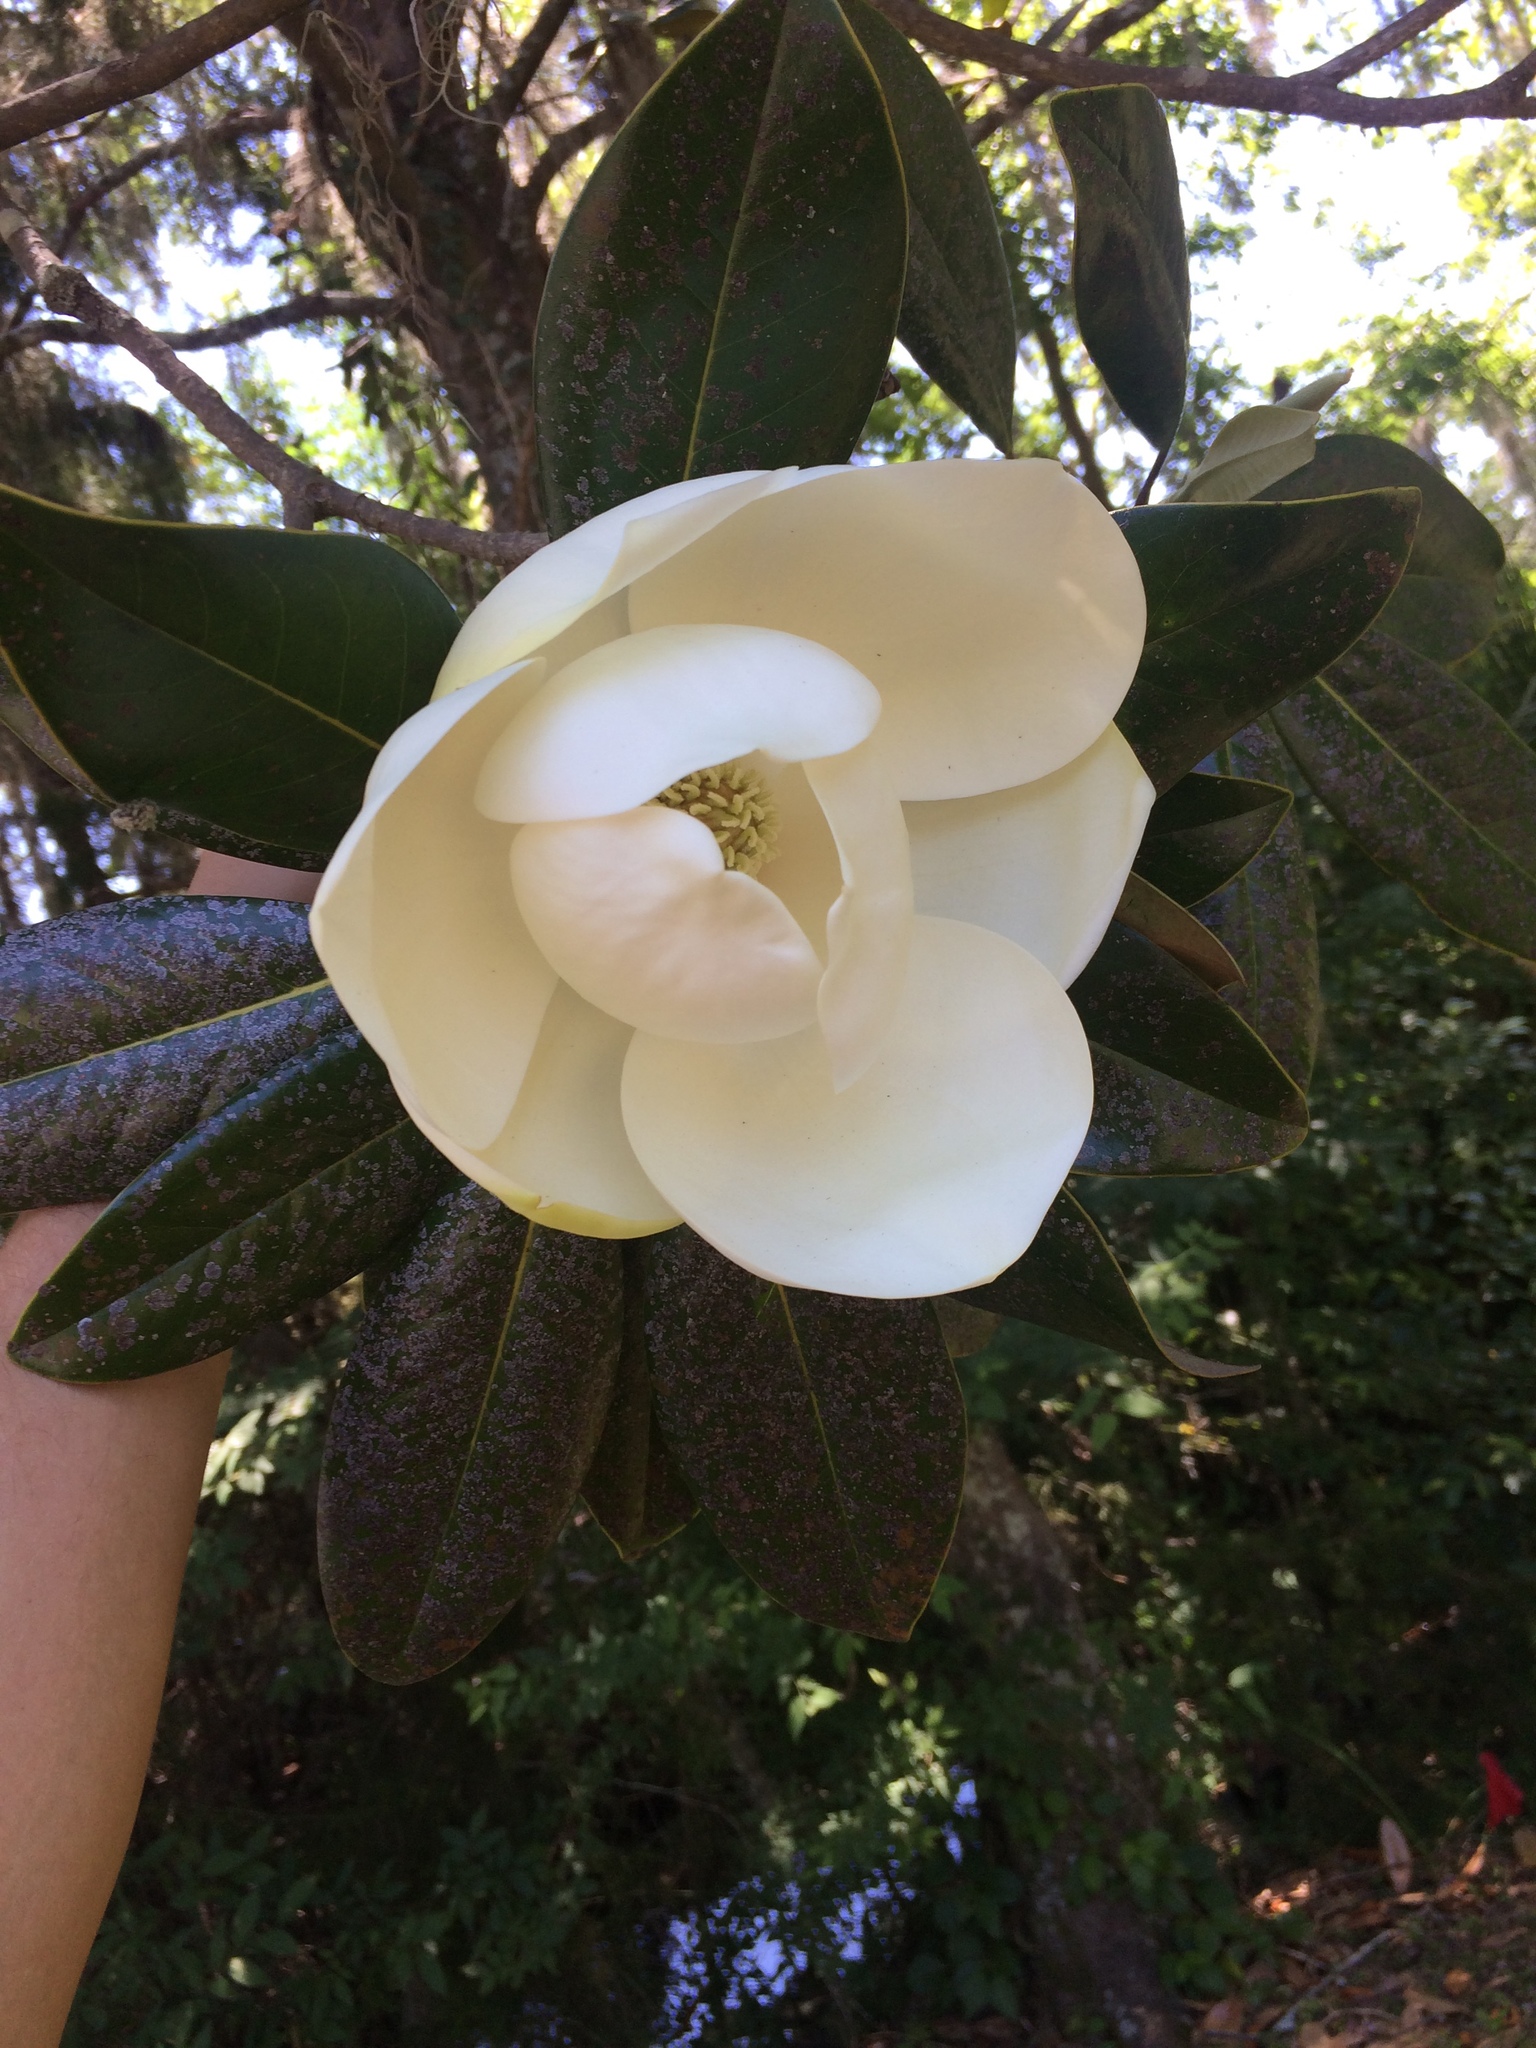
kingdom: Plantae
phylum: Tracheophyta
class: Magnoliopsida
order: Magnoliales
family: Magnoliaceae
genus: Magnolia
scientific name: Magnolia grandiflora
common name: Southern magnolia
